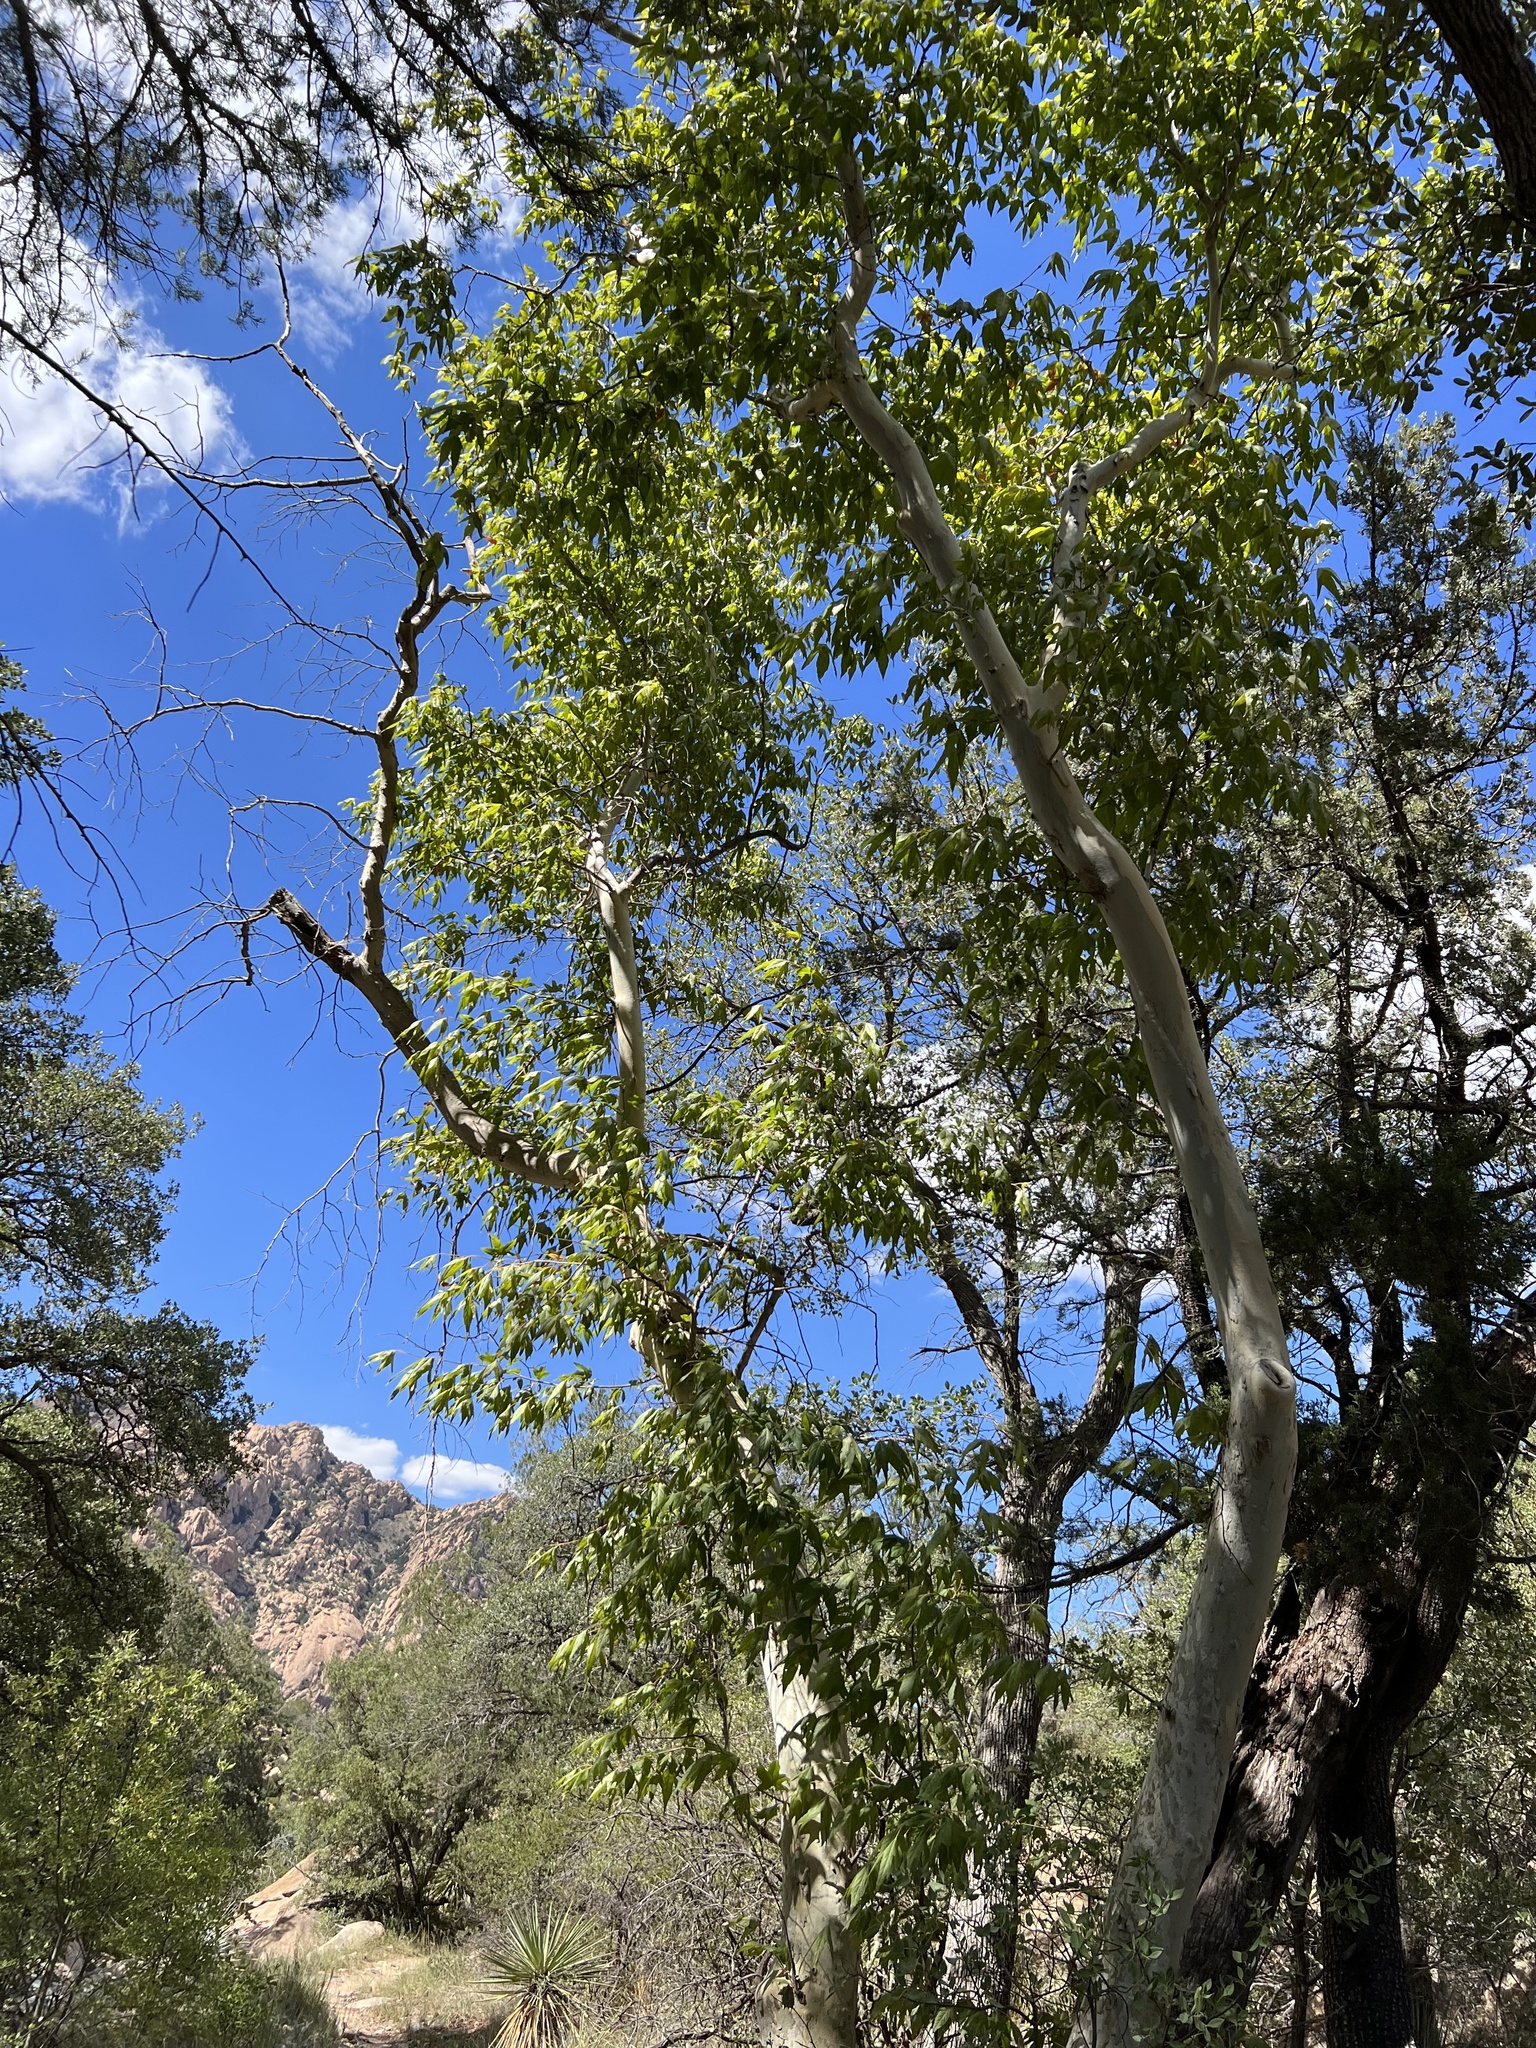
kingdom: Plantae
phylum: Tracheophyta
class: Magnoliopsida
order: Proteales
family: Platanaceae
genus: Platanus
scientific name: Platanus wrightii
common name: Arizona sycamore
